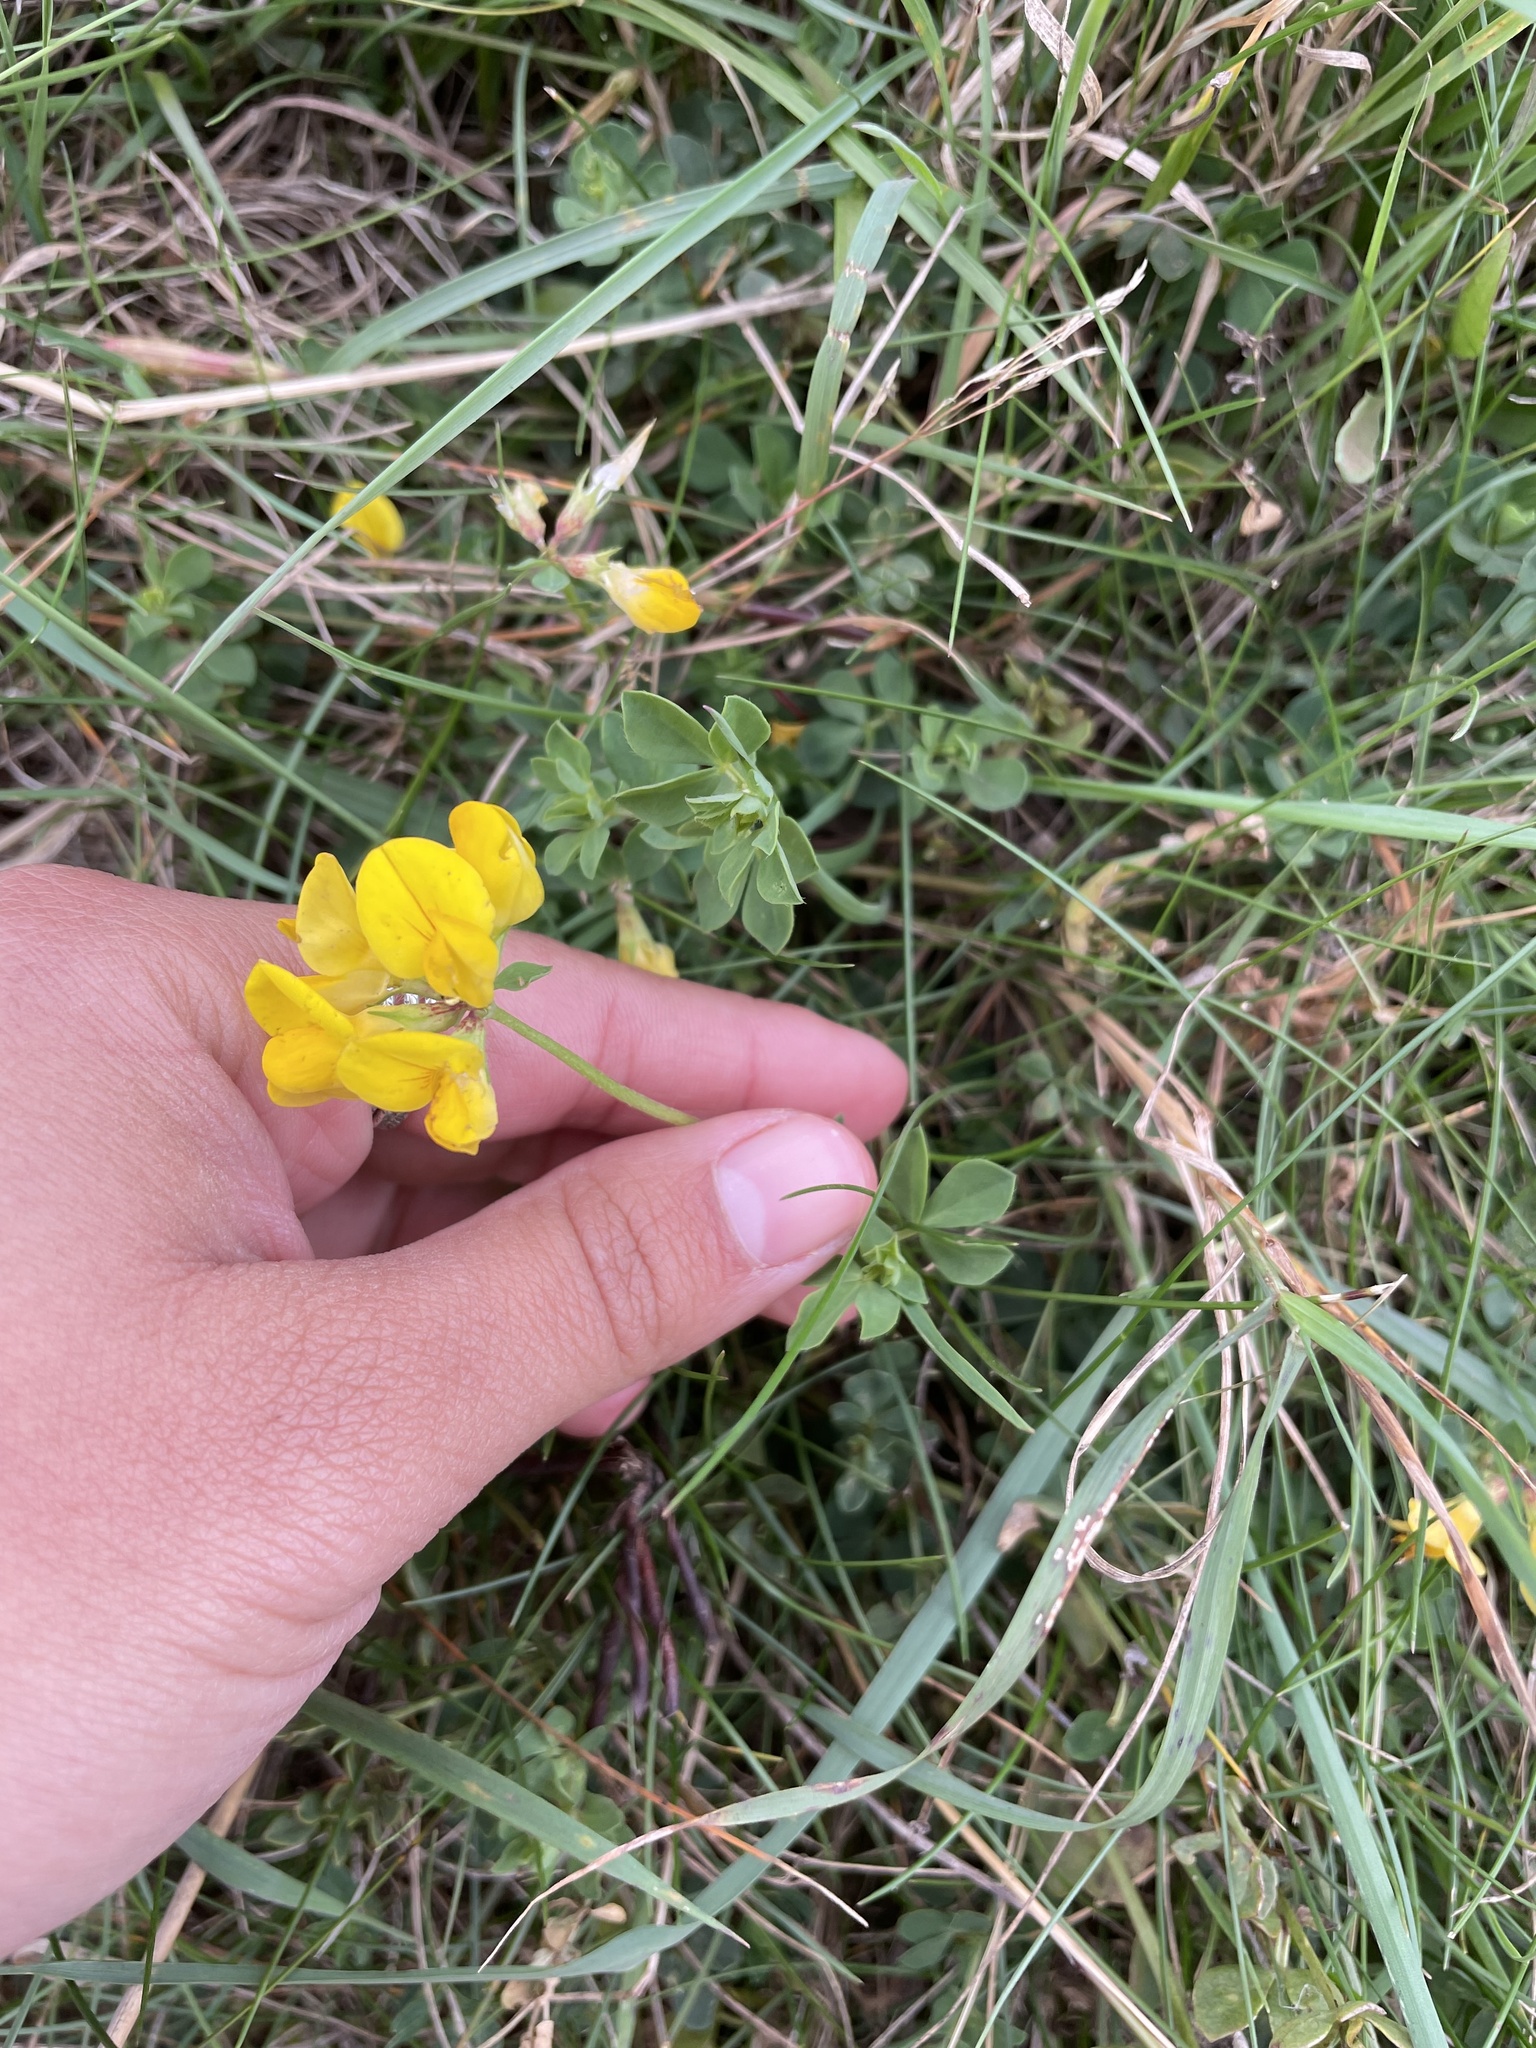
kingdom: Plantae
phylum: Tracheophyta
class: Magnoliopsida
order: Fabales
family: Fabaceae
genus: Lotus
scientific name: Lotus corniculatus
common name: Common bird's-foot-trefoil
